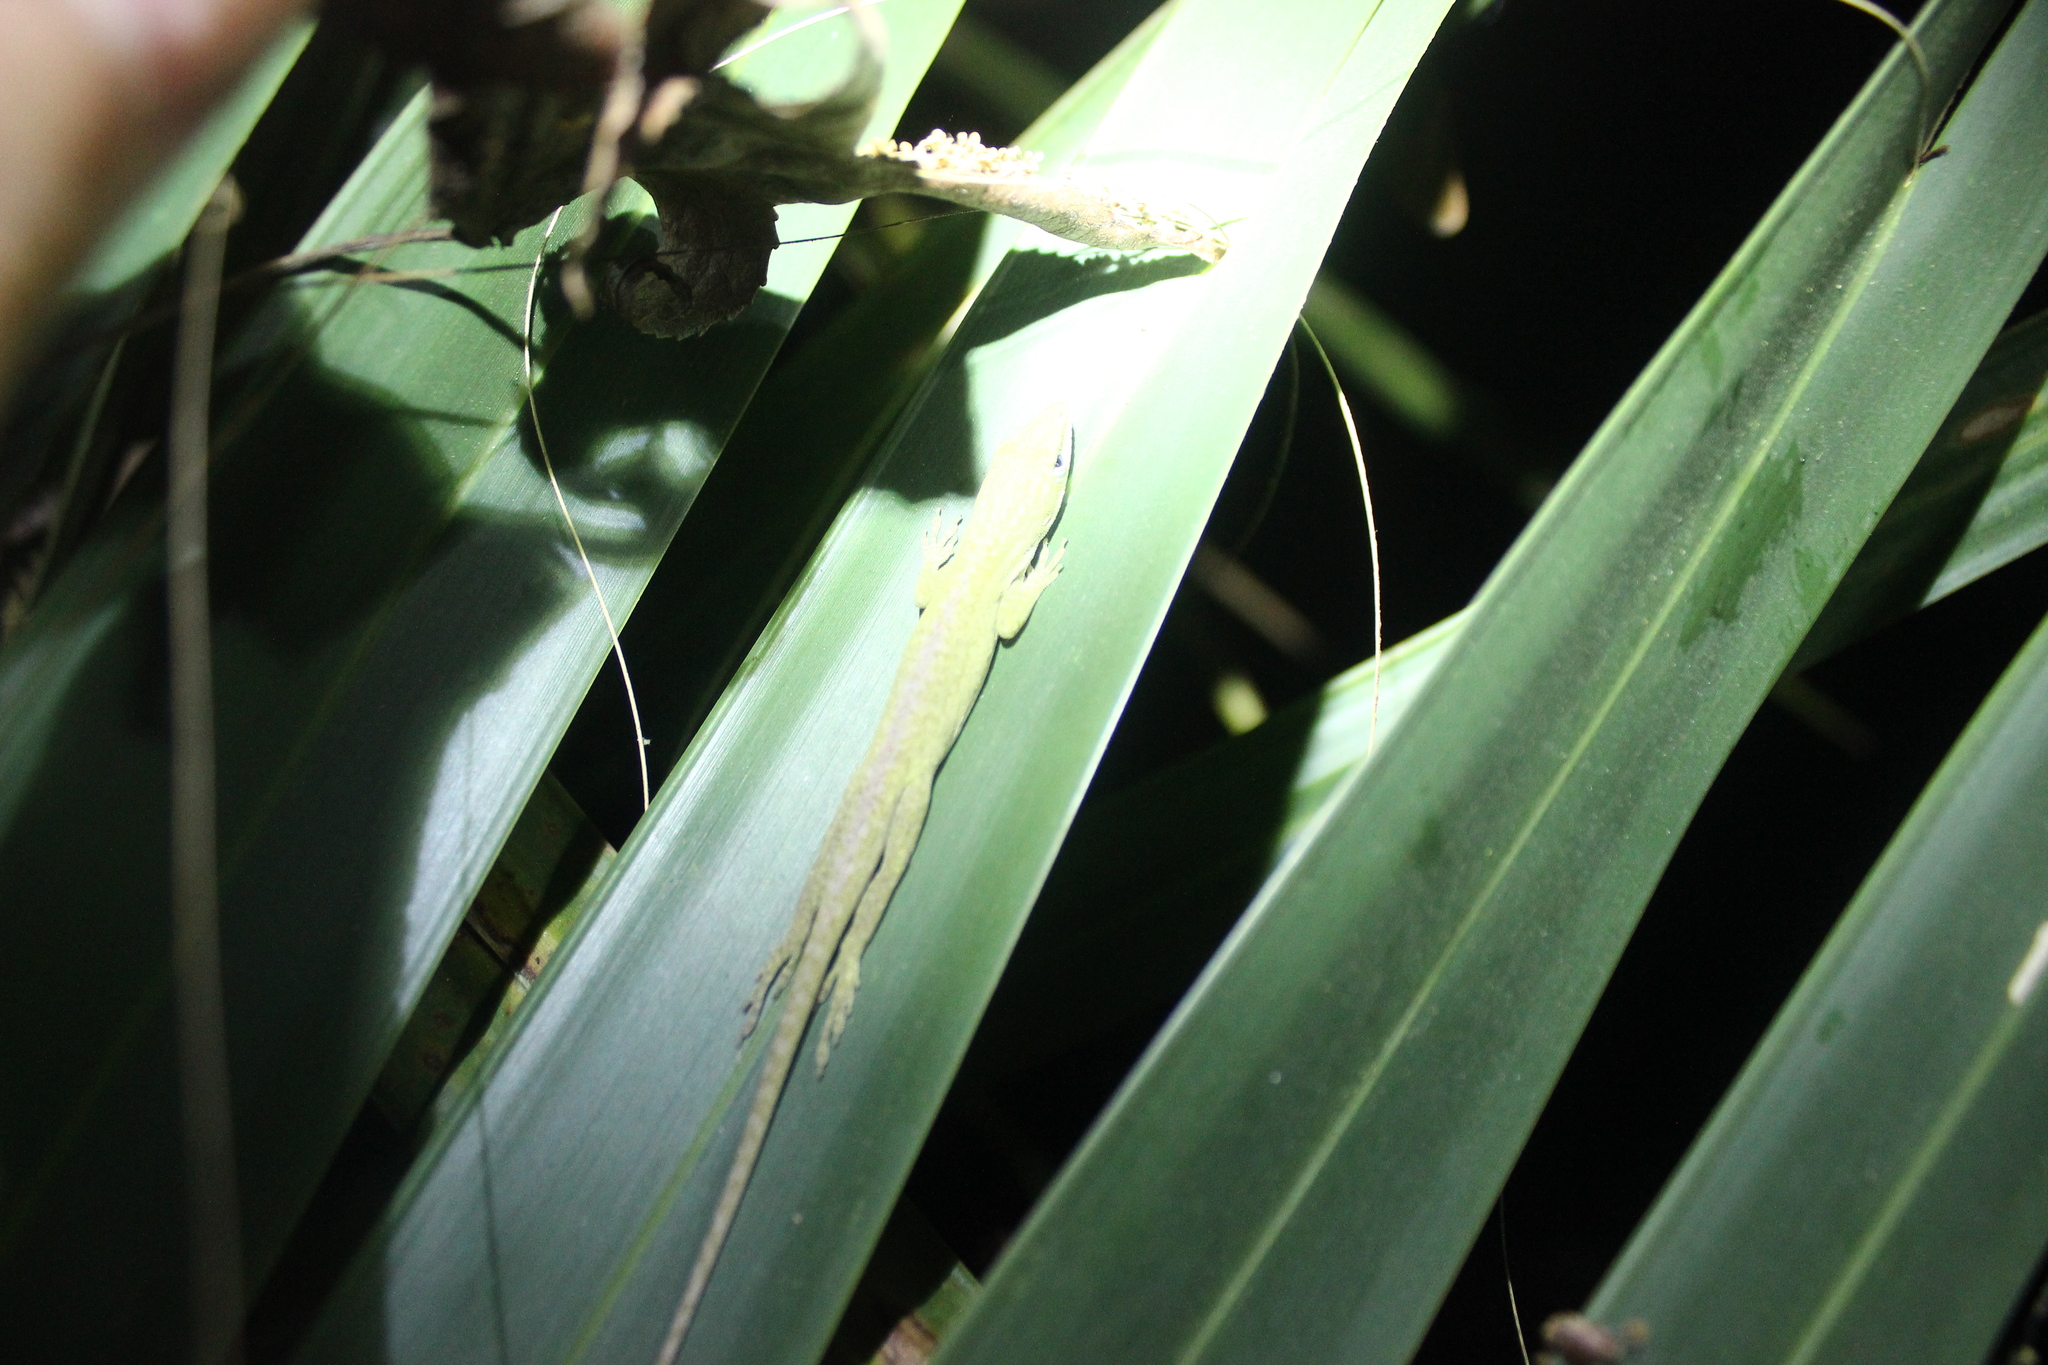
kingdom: Animalia
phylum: Chordata
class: Squamata
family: Dactyloidae
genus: Anolis
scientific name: Anolis carolinensis
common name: Green anole
